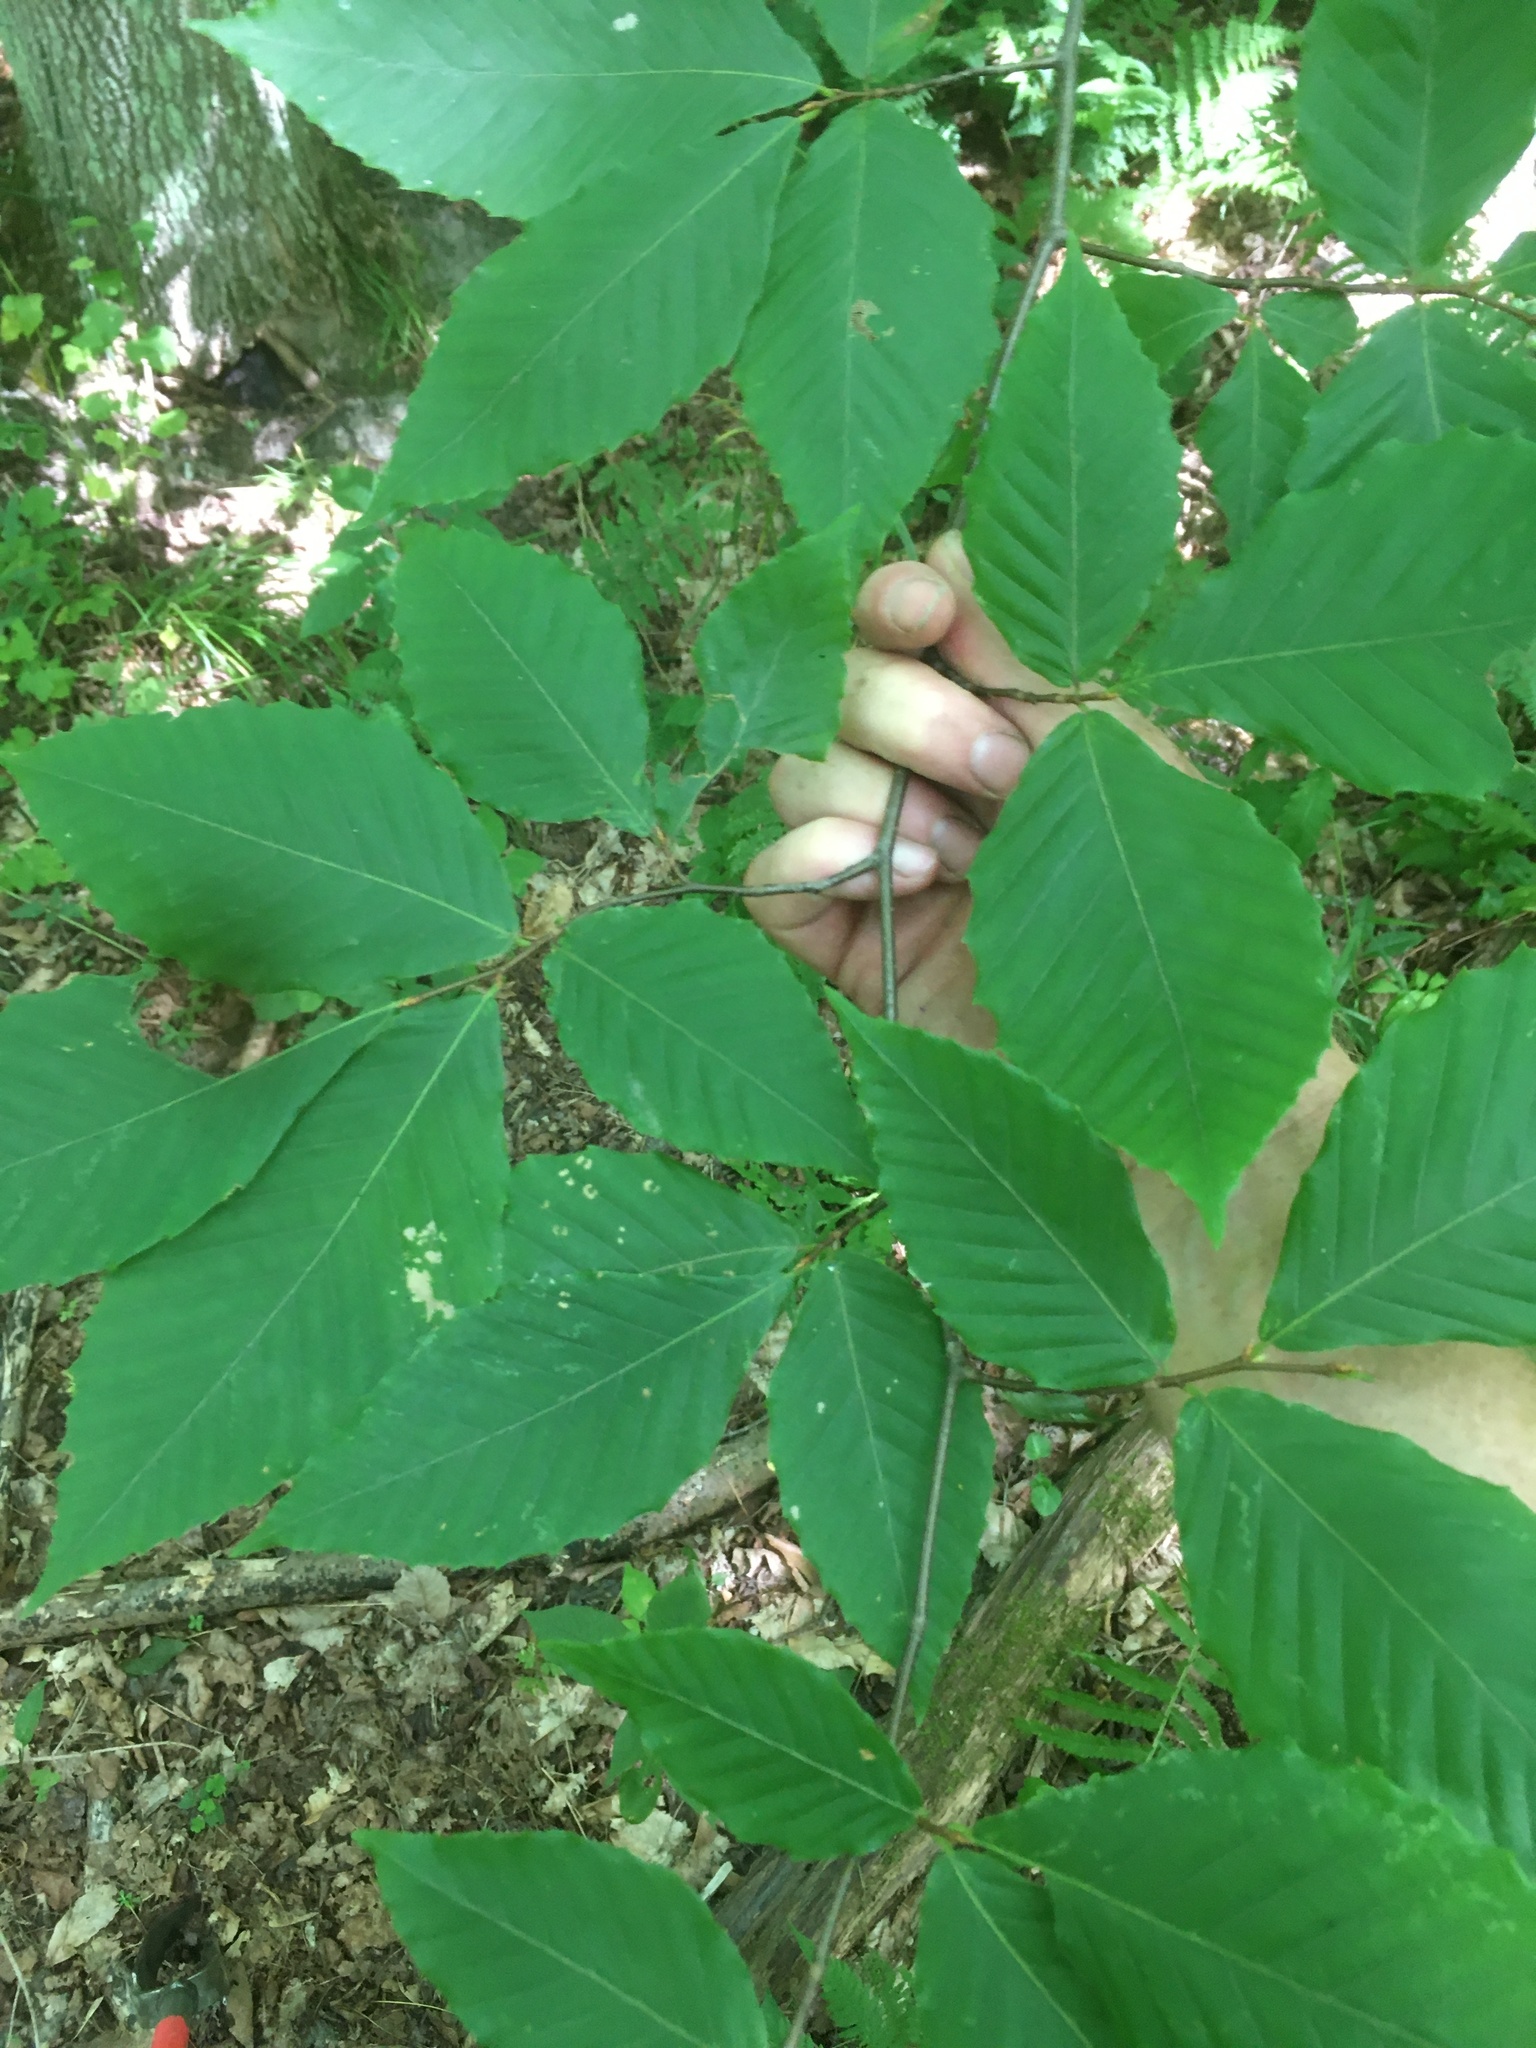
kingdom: Plantae
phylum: Tracheophyta
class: Magnoliopsida
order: Fagales
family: Fagaceae
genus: Fagus
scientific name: Fagus grandifolia
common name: American beech
